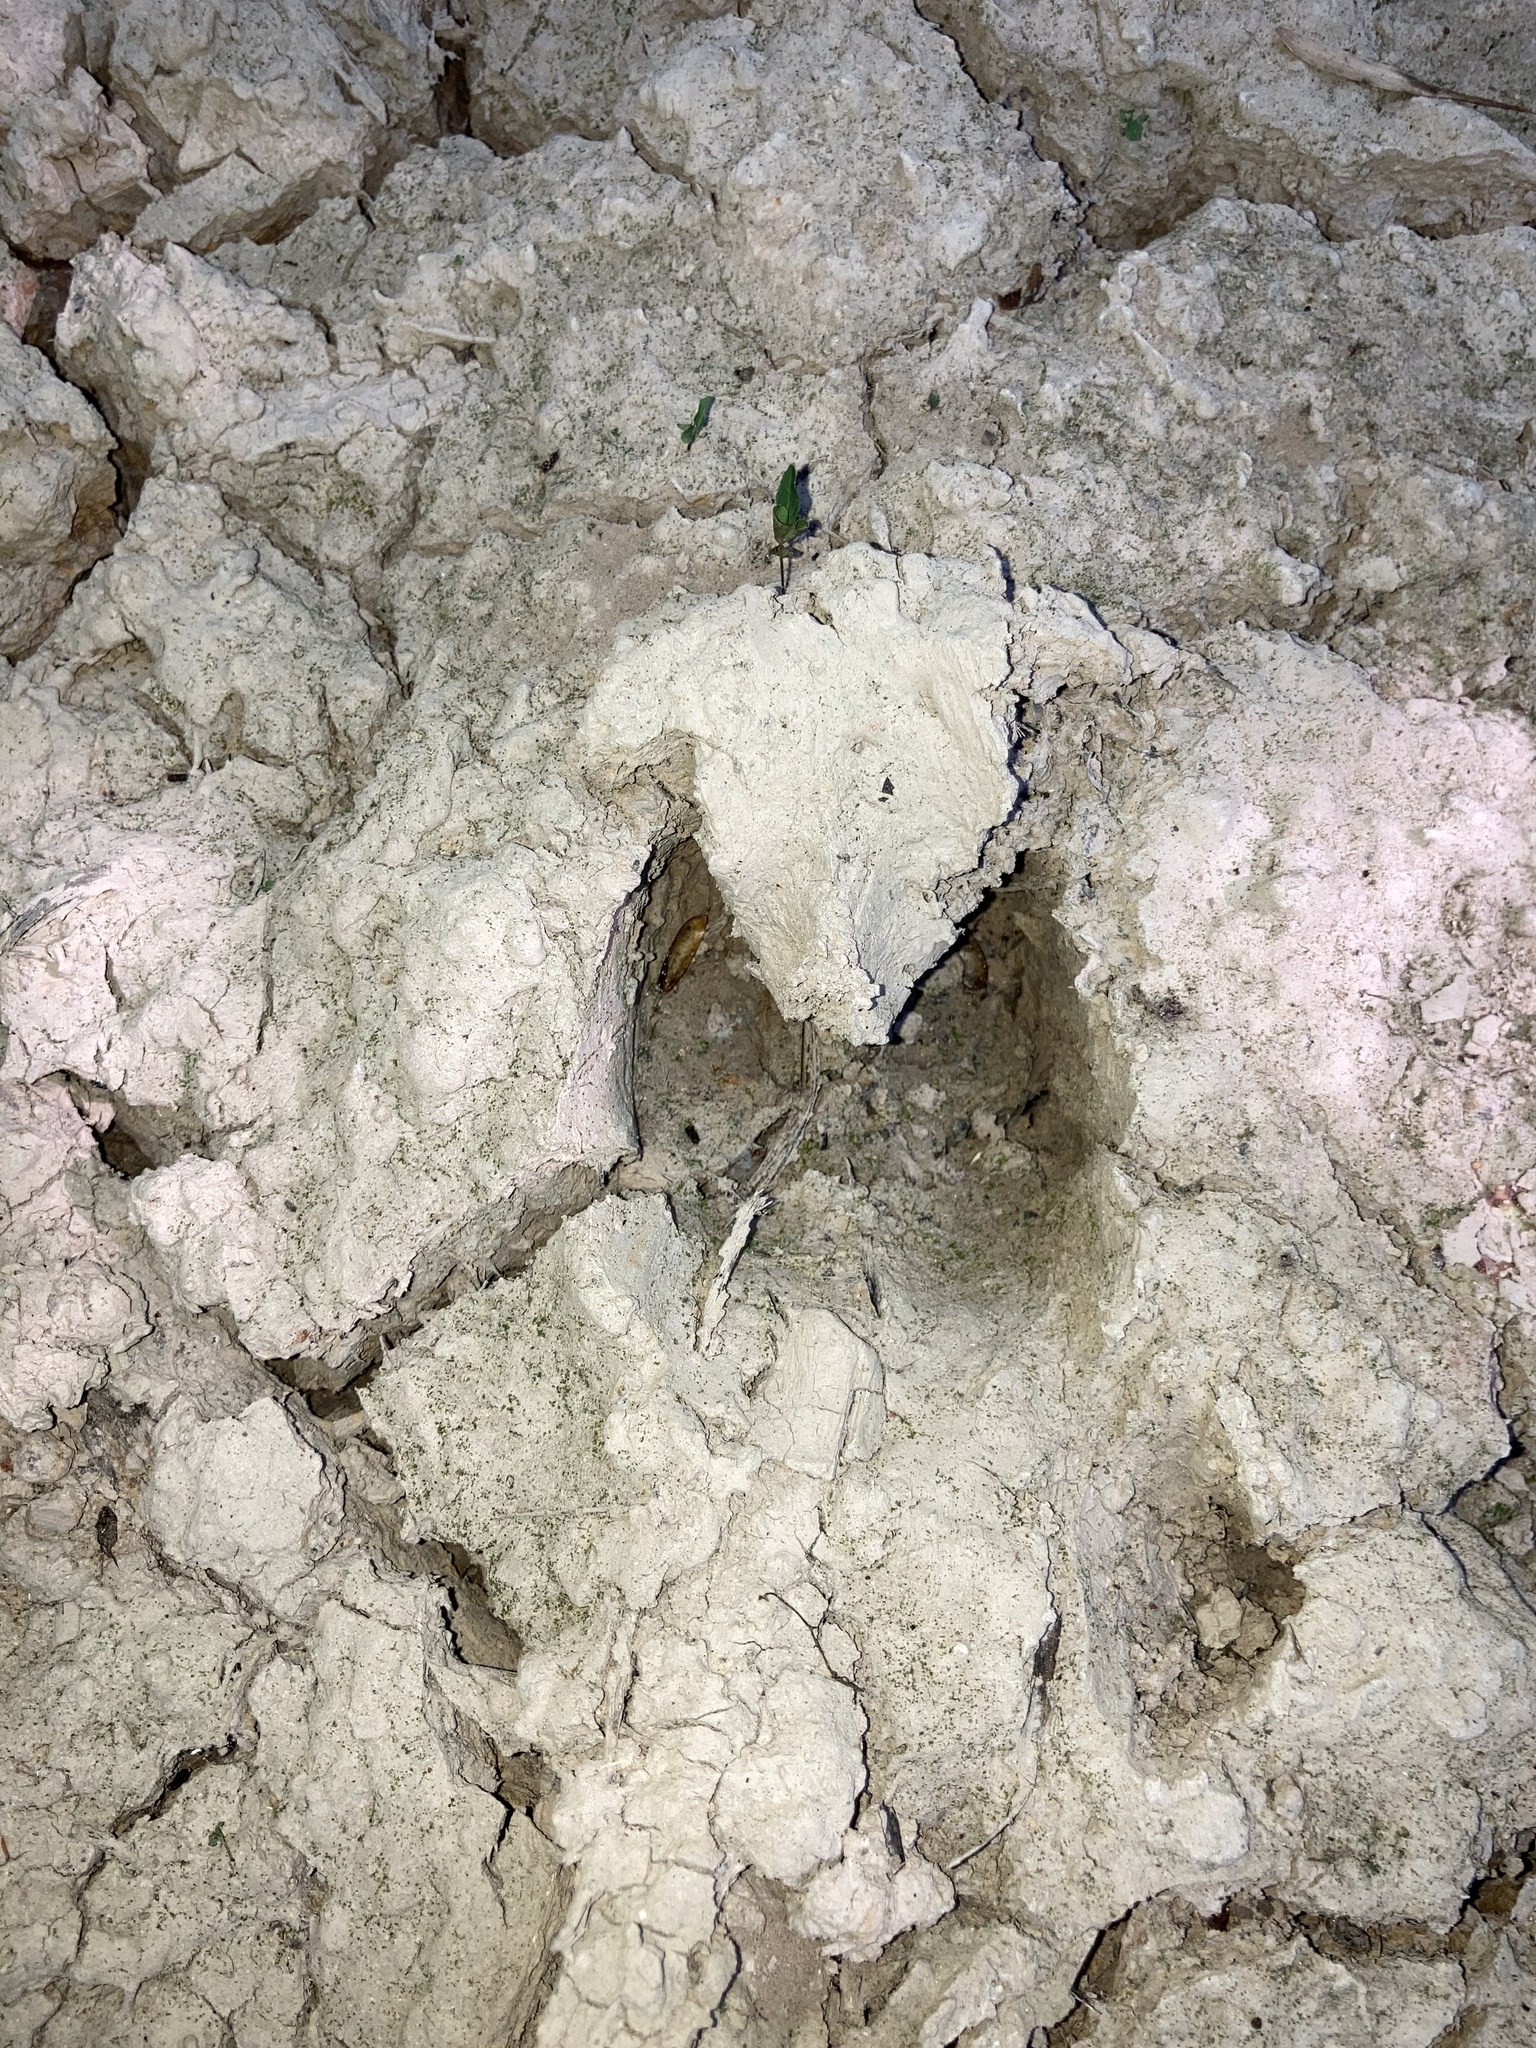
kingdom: Animalia
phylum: Chordata
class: Mammalia
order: Artiodactyla
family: Cervidae
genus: Odocoileus
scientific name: Odocoileus virginianus
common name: White-tailed deer
